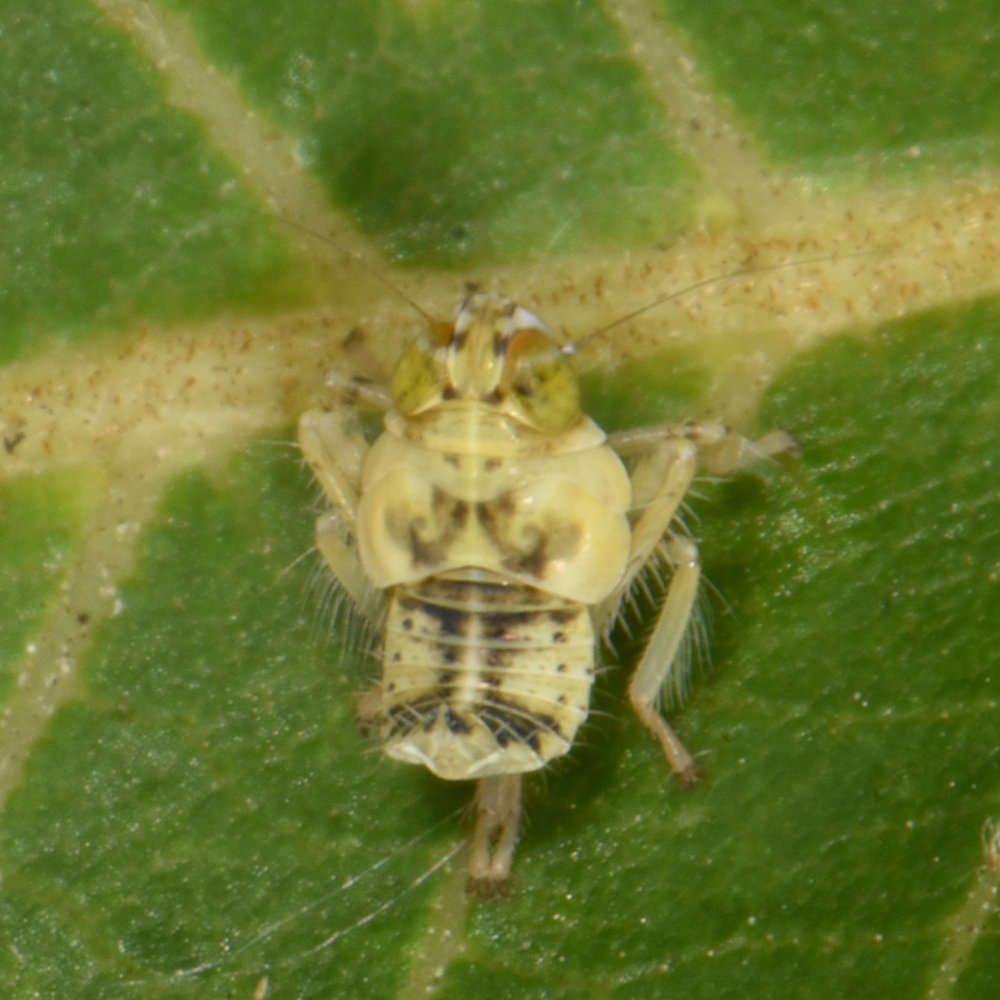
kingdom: Animalia
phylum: Arthropoda
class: Insecta
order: Hemiptera
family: Cicadellidae
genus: Jikradia
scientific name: Jikradia olitoria
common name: Coppery leafhopper
